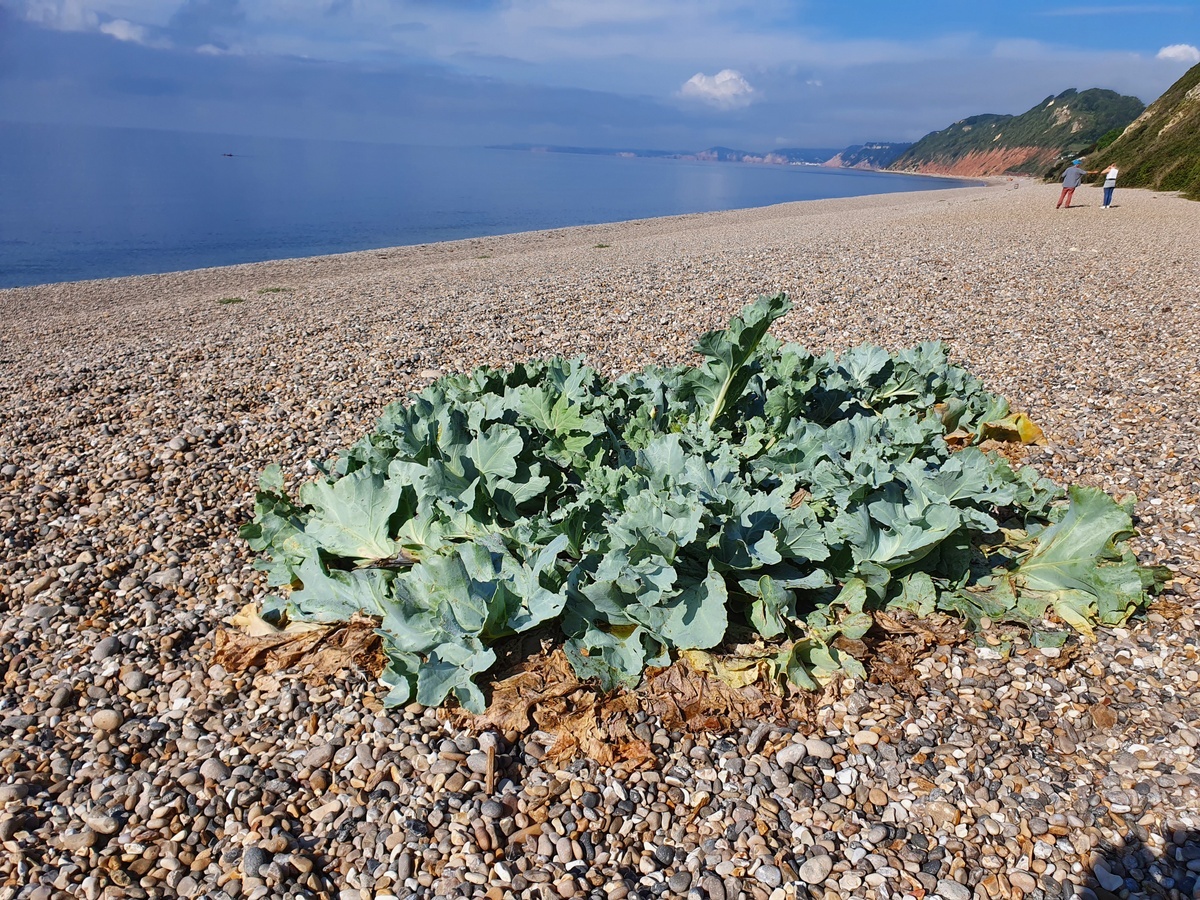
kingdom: Plantae
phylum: Tracheophyta
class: Magnoliopsida
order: Brassicales
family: Brassicaceae
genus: Crambe
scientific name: Crambe maritima
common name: Sea-kale
